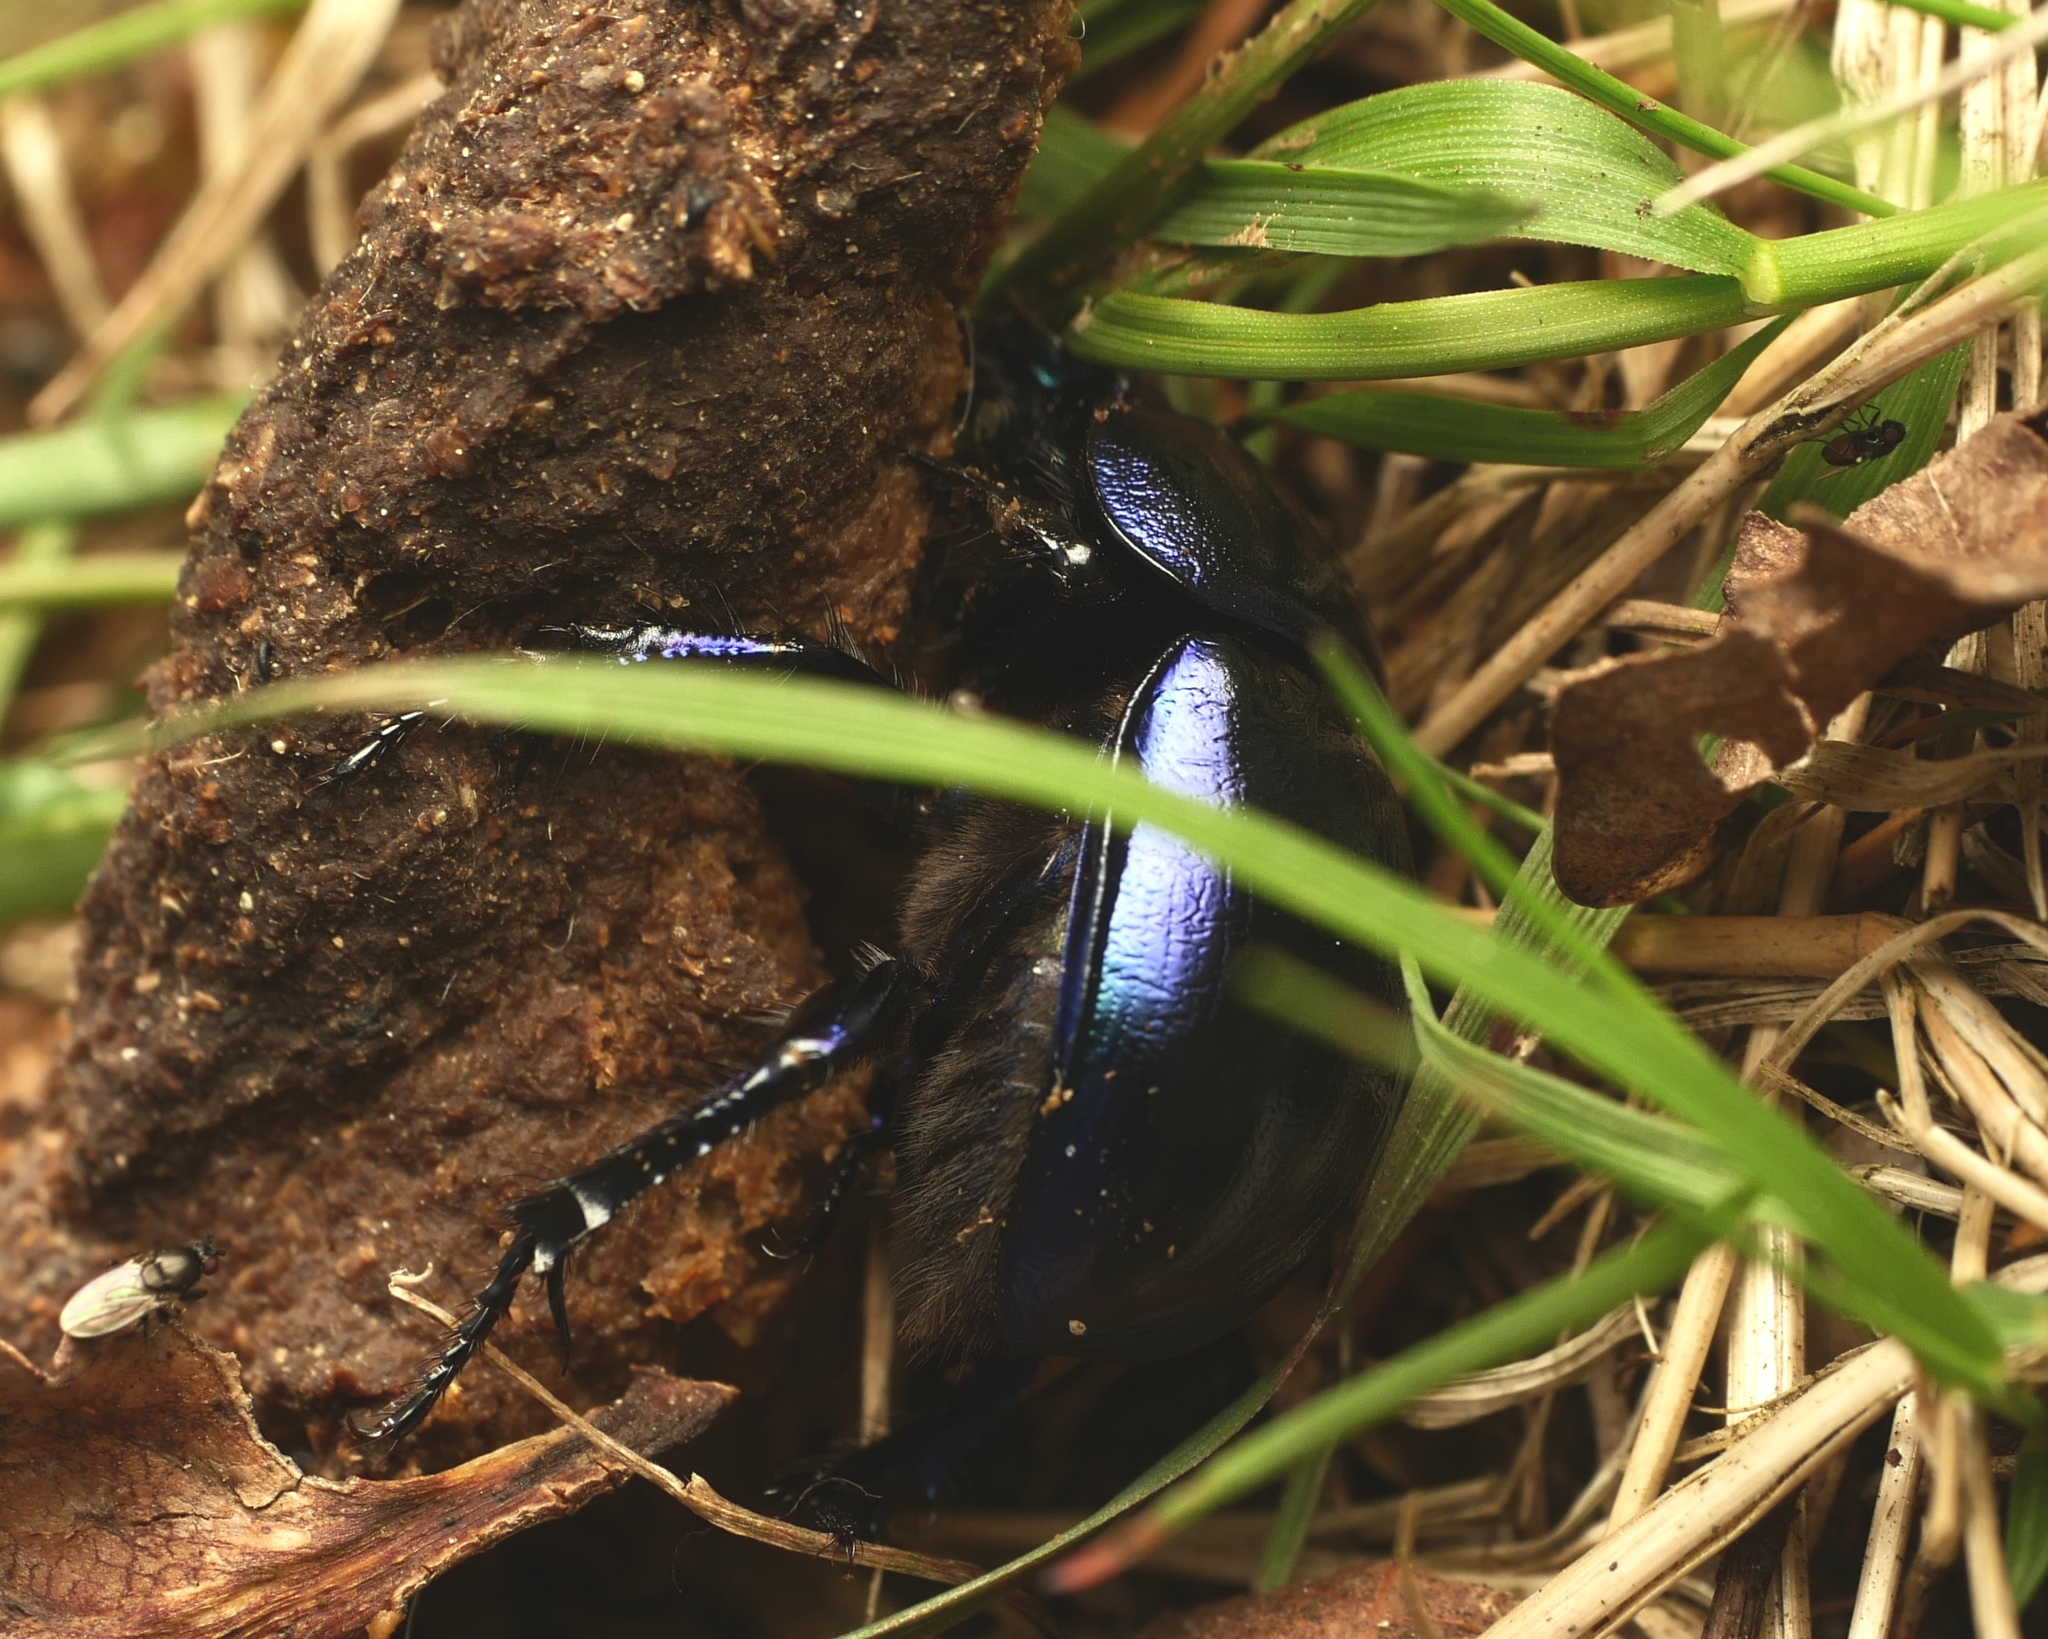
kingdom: Animalia
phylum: Arthropoda
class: Insecta
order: Coleoptera
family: Geotrupidae
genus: Trypocopris
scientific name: Trypocopris vernalis
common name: Spring dumbledor
